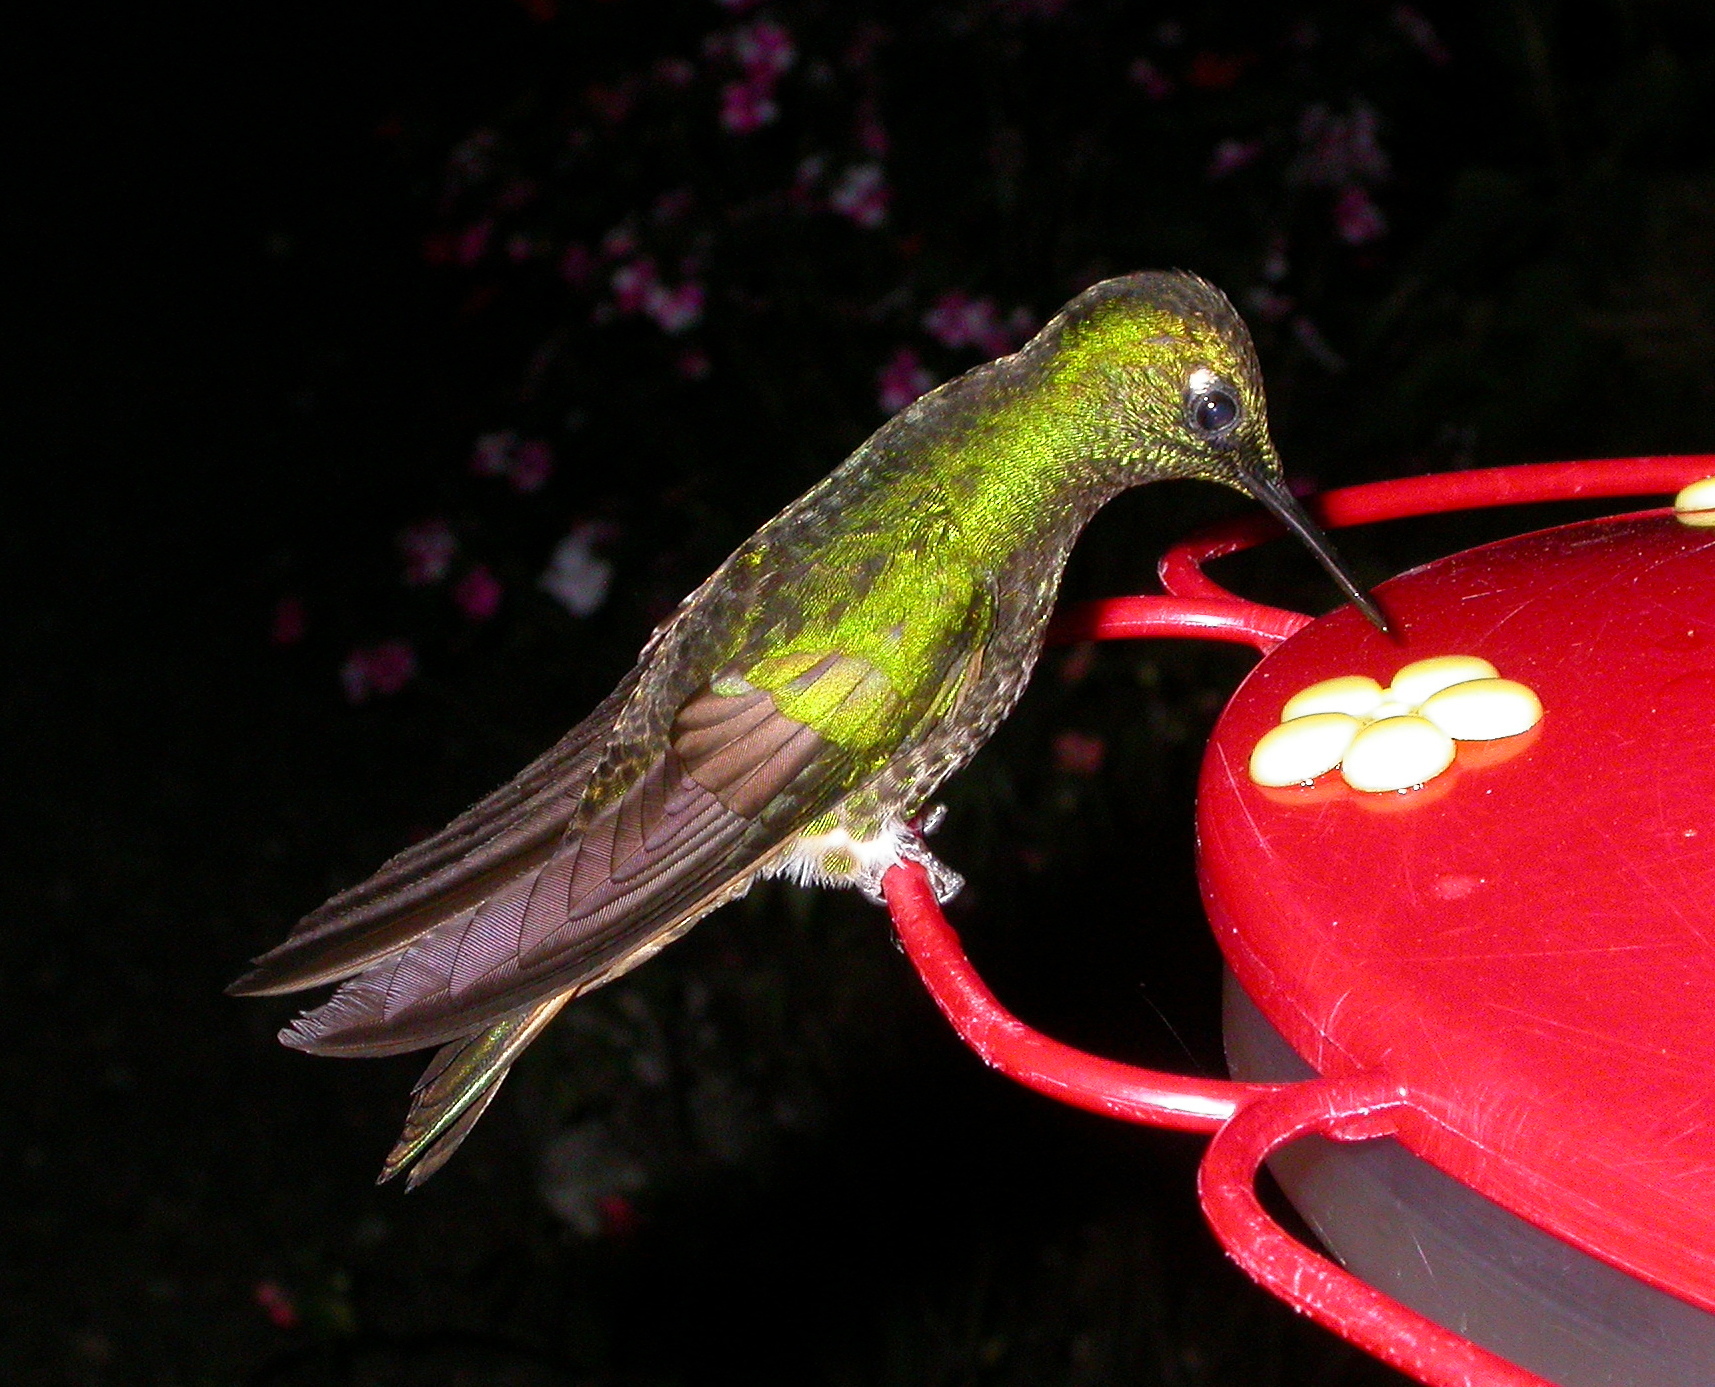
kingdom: Animalia
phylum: Chordata
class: Aves
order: Apodiformes
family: Trochilidae
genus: Boissonneaua
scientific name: Boissonneaua flavescens
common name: Buff-tailed coronet
